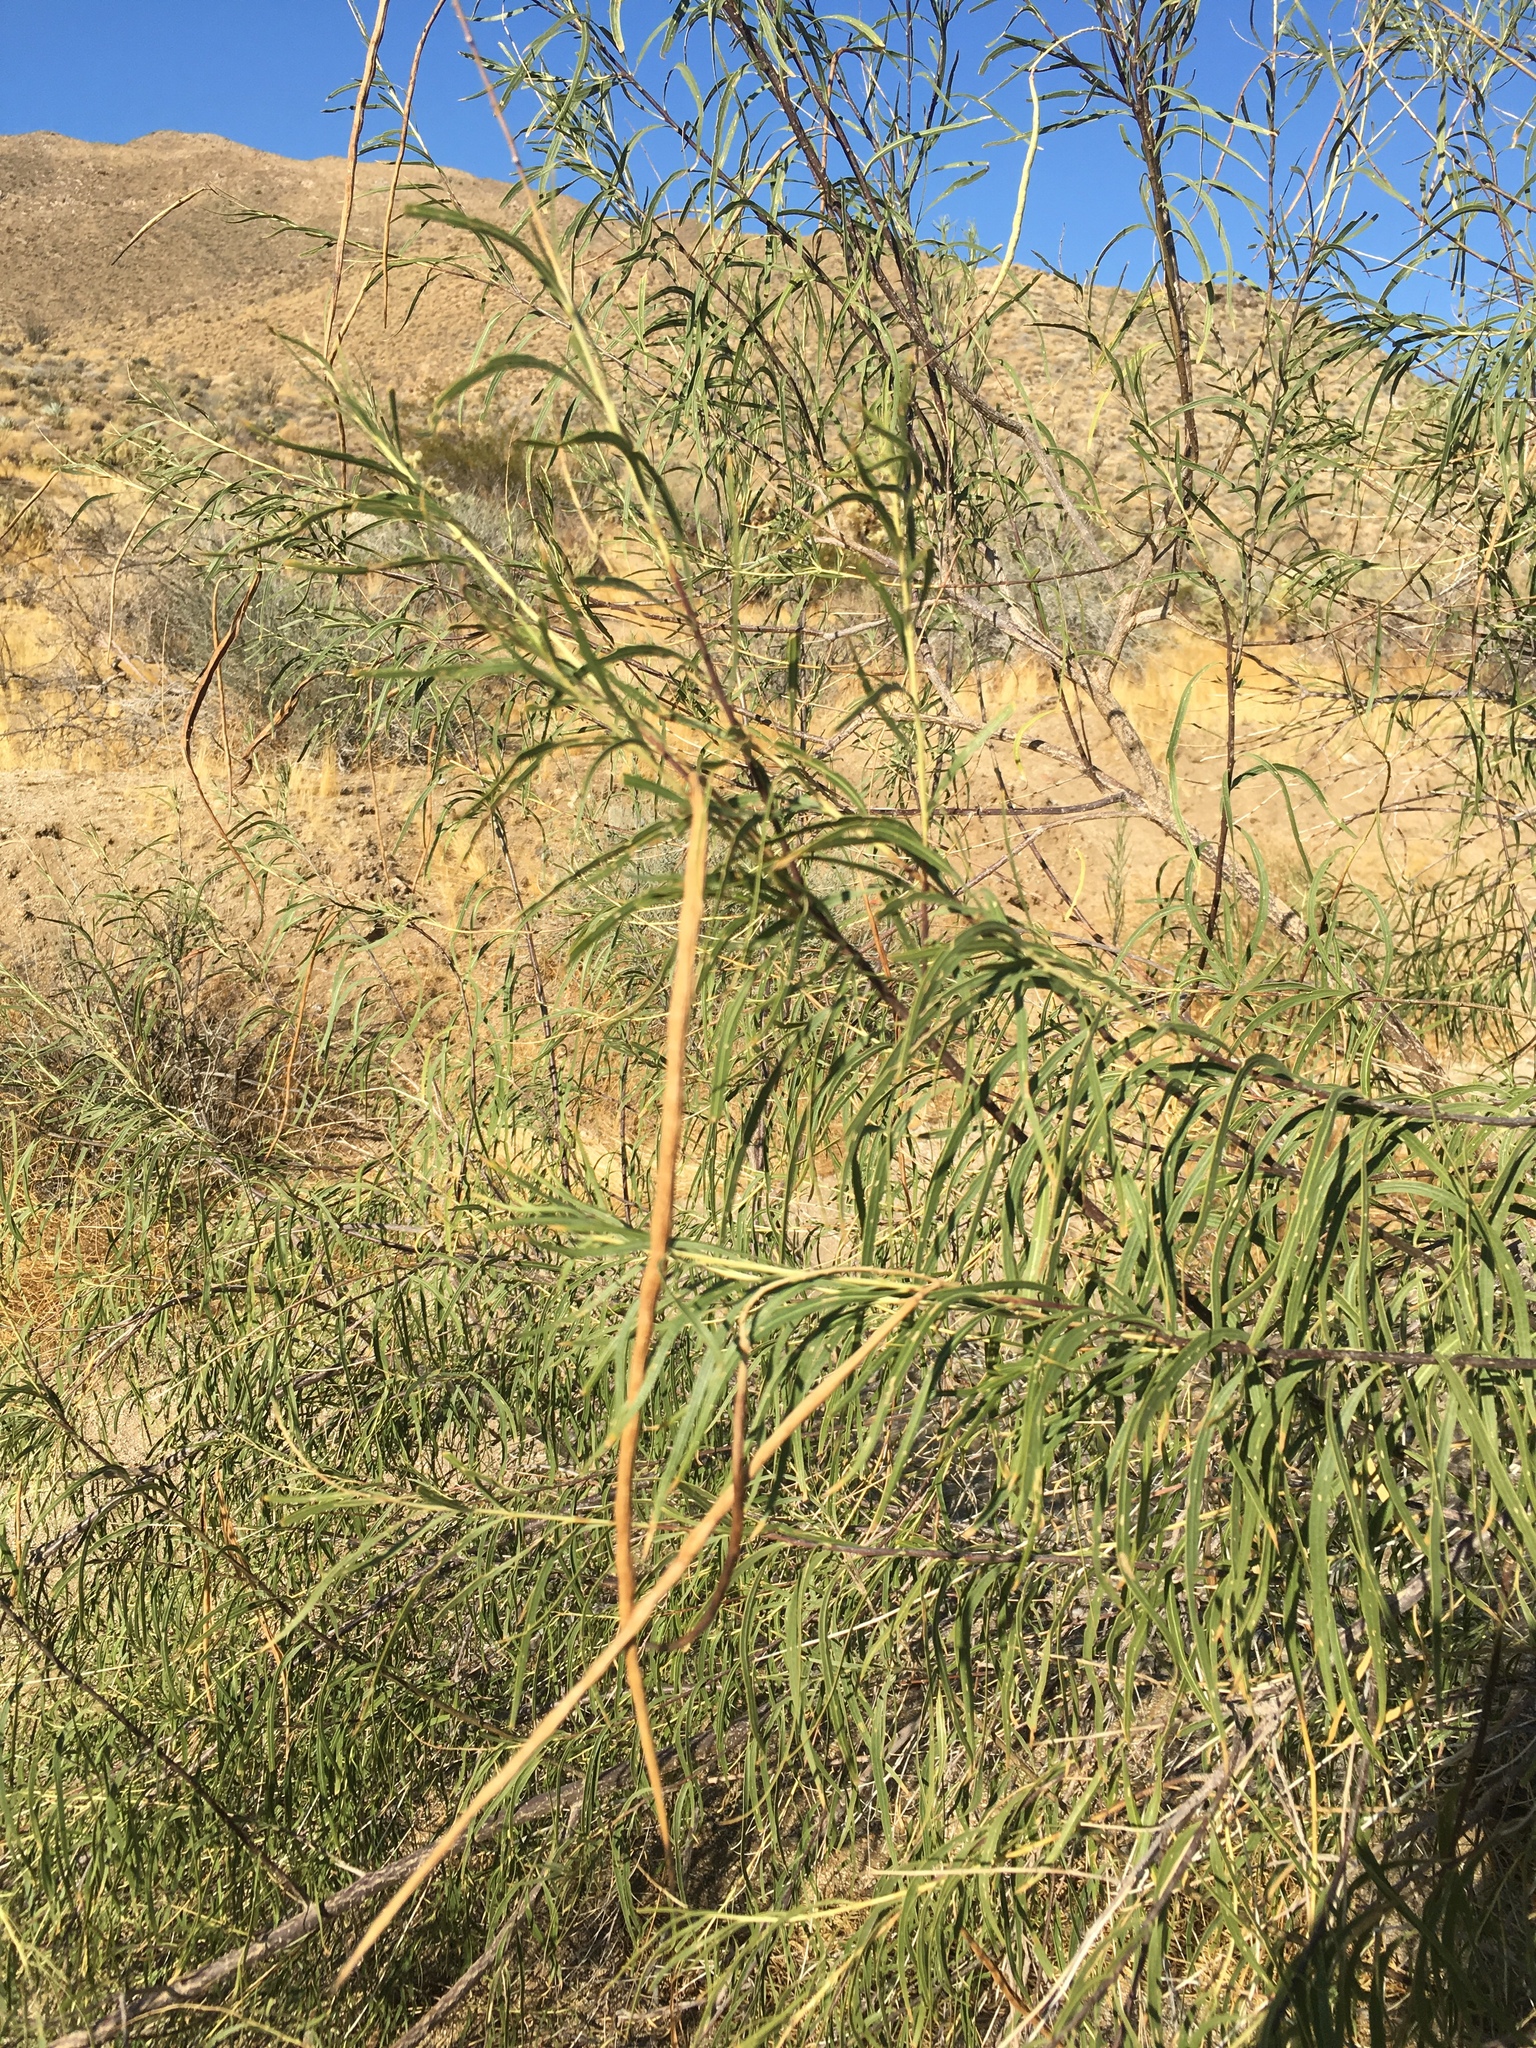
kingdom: Plantae
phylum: Tracheophyta
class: Magnoliopsida
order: Lamiales
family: Bignoniaceae
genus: Chilopsis
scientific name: Chilopsis linearis
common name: Desert-willow
